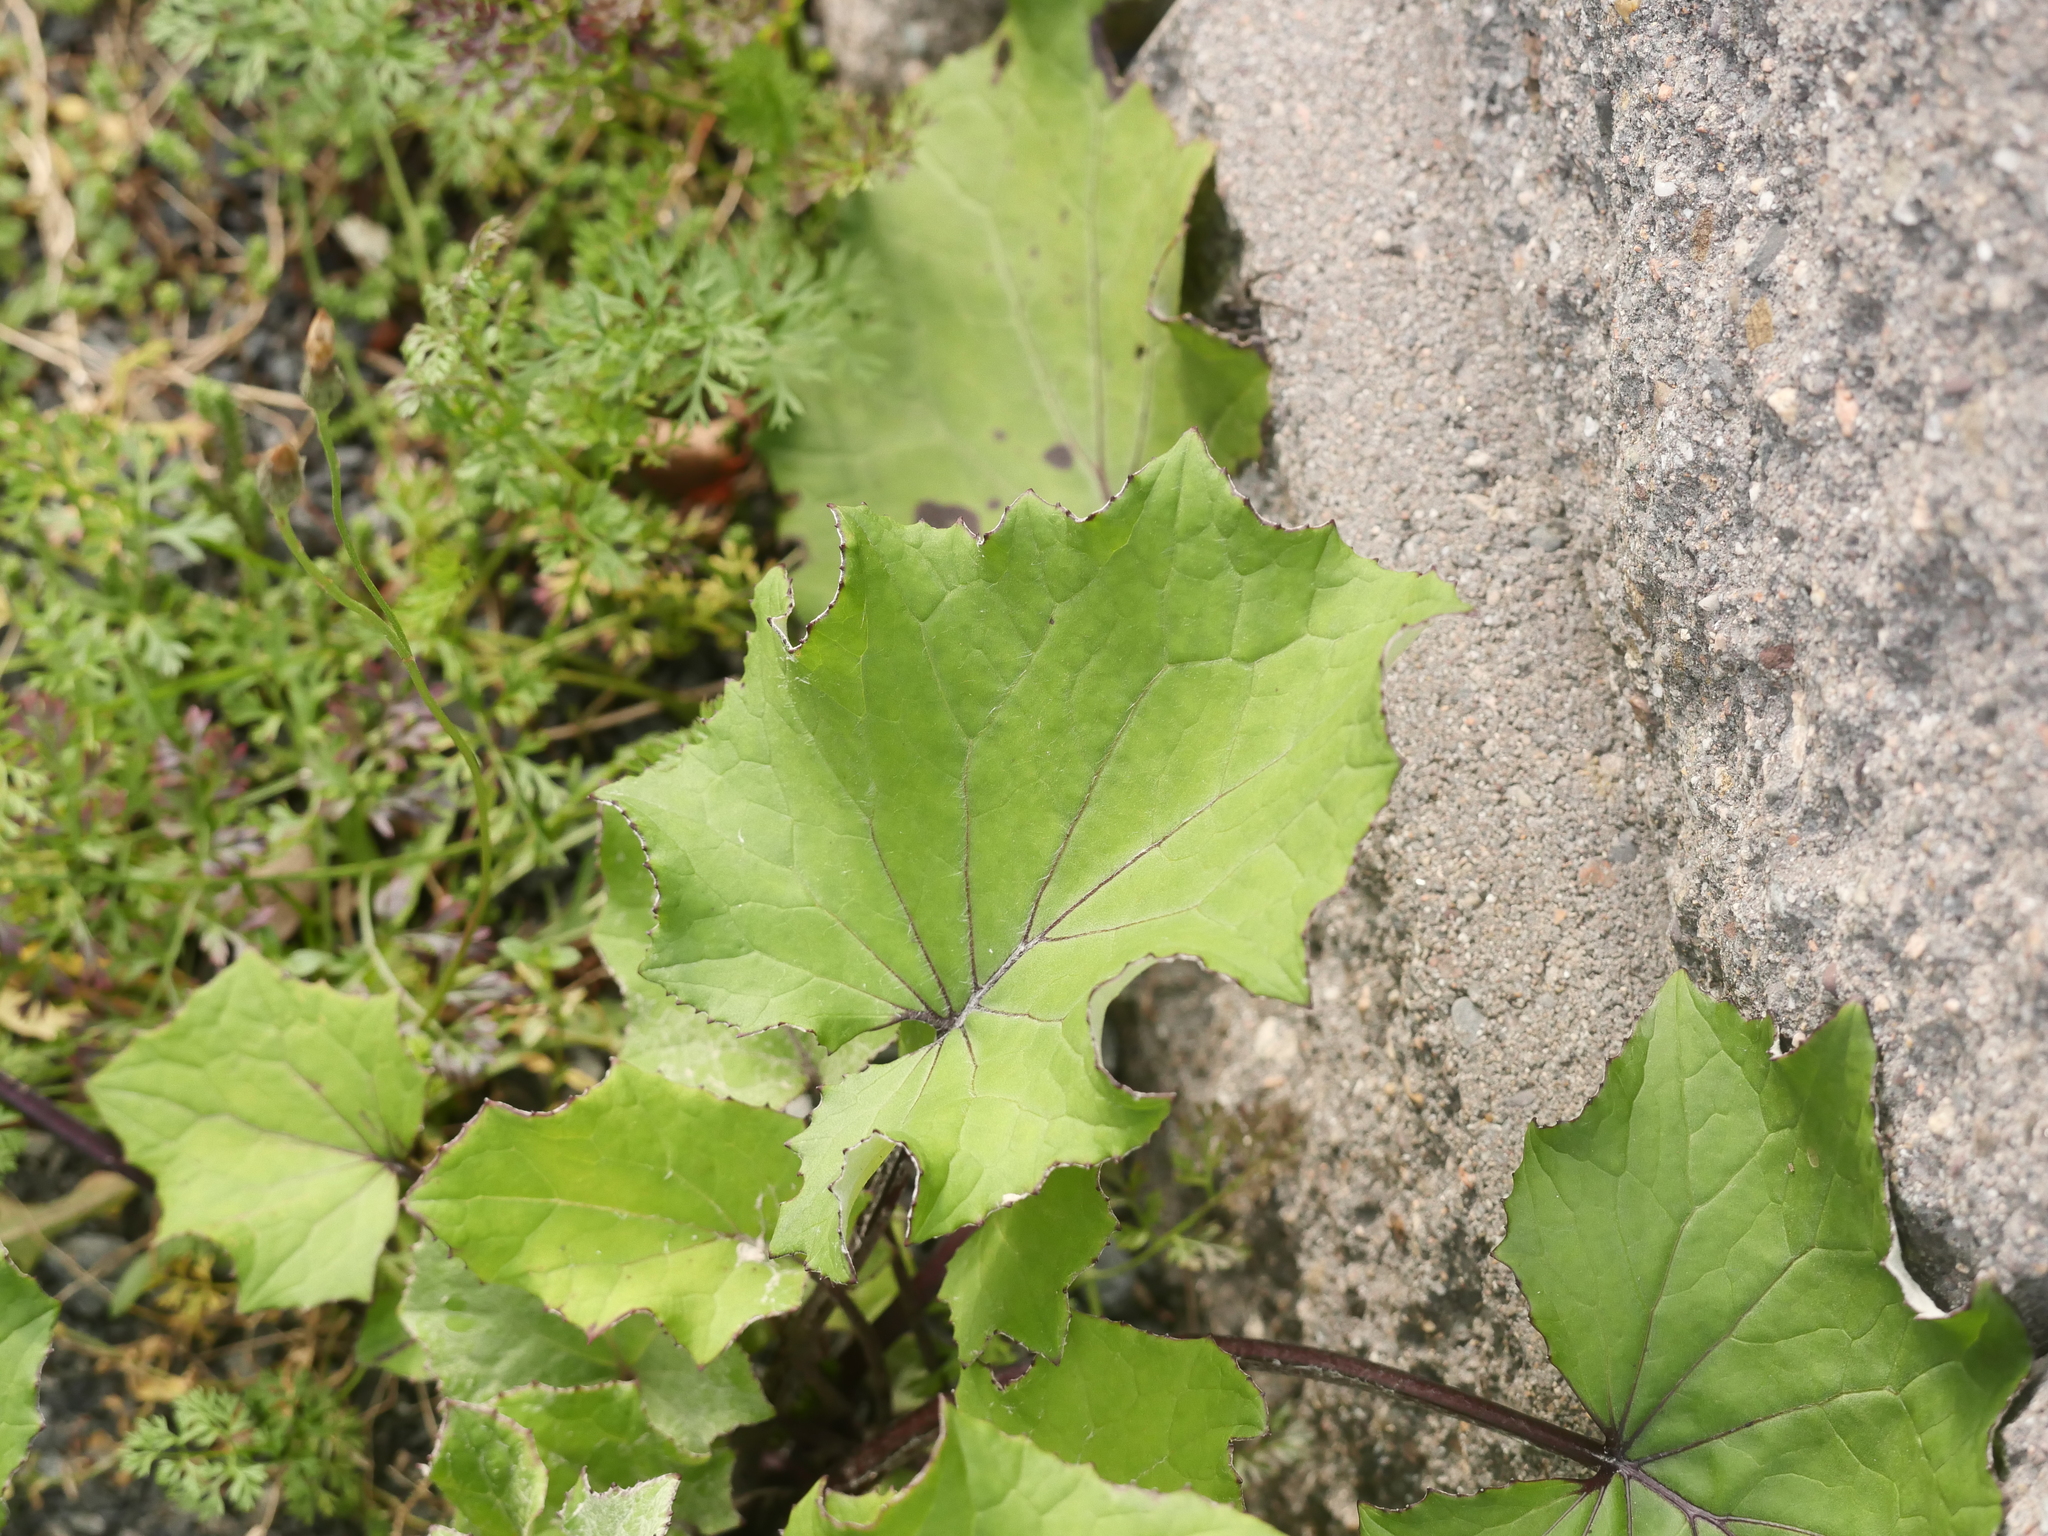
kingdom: Plantae
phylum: Tracheophyta
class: Magnoliopsida
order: Asterales
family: Asteraceae
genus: Tussilago
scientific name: Tussilago farfara
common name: Coltsfoot
